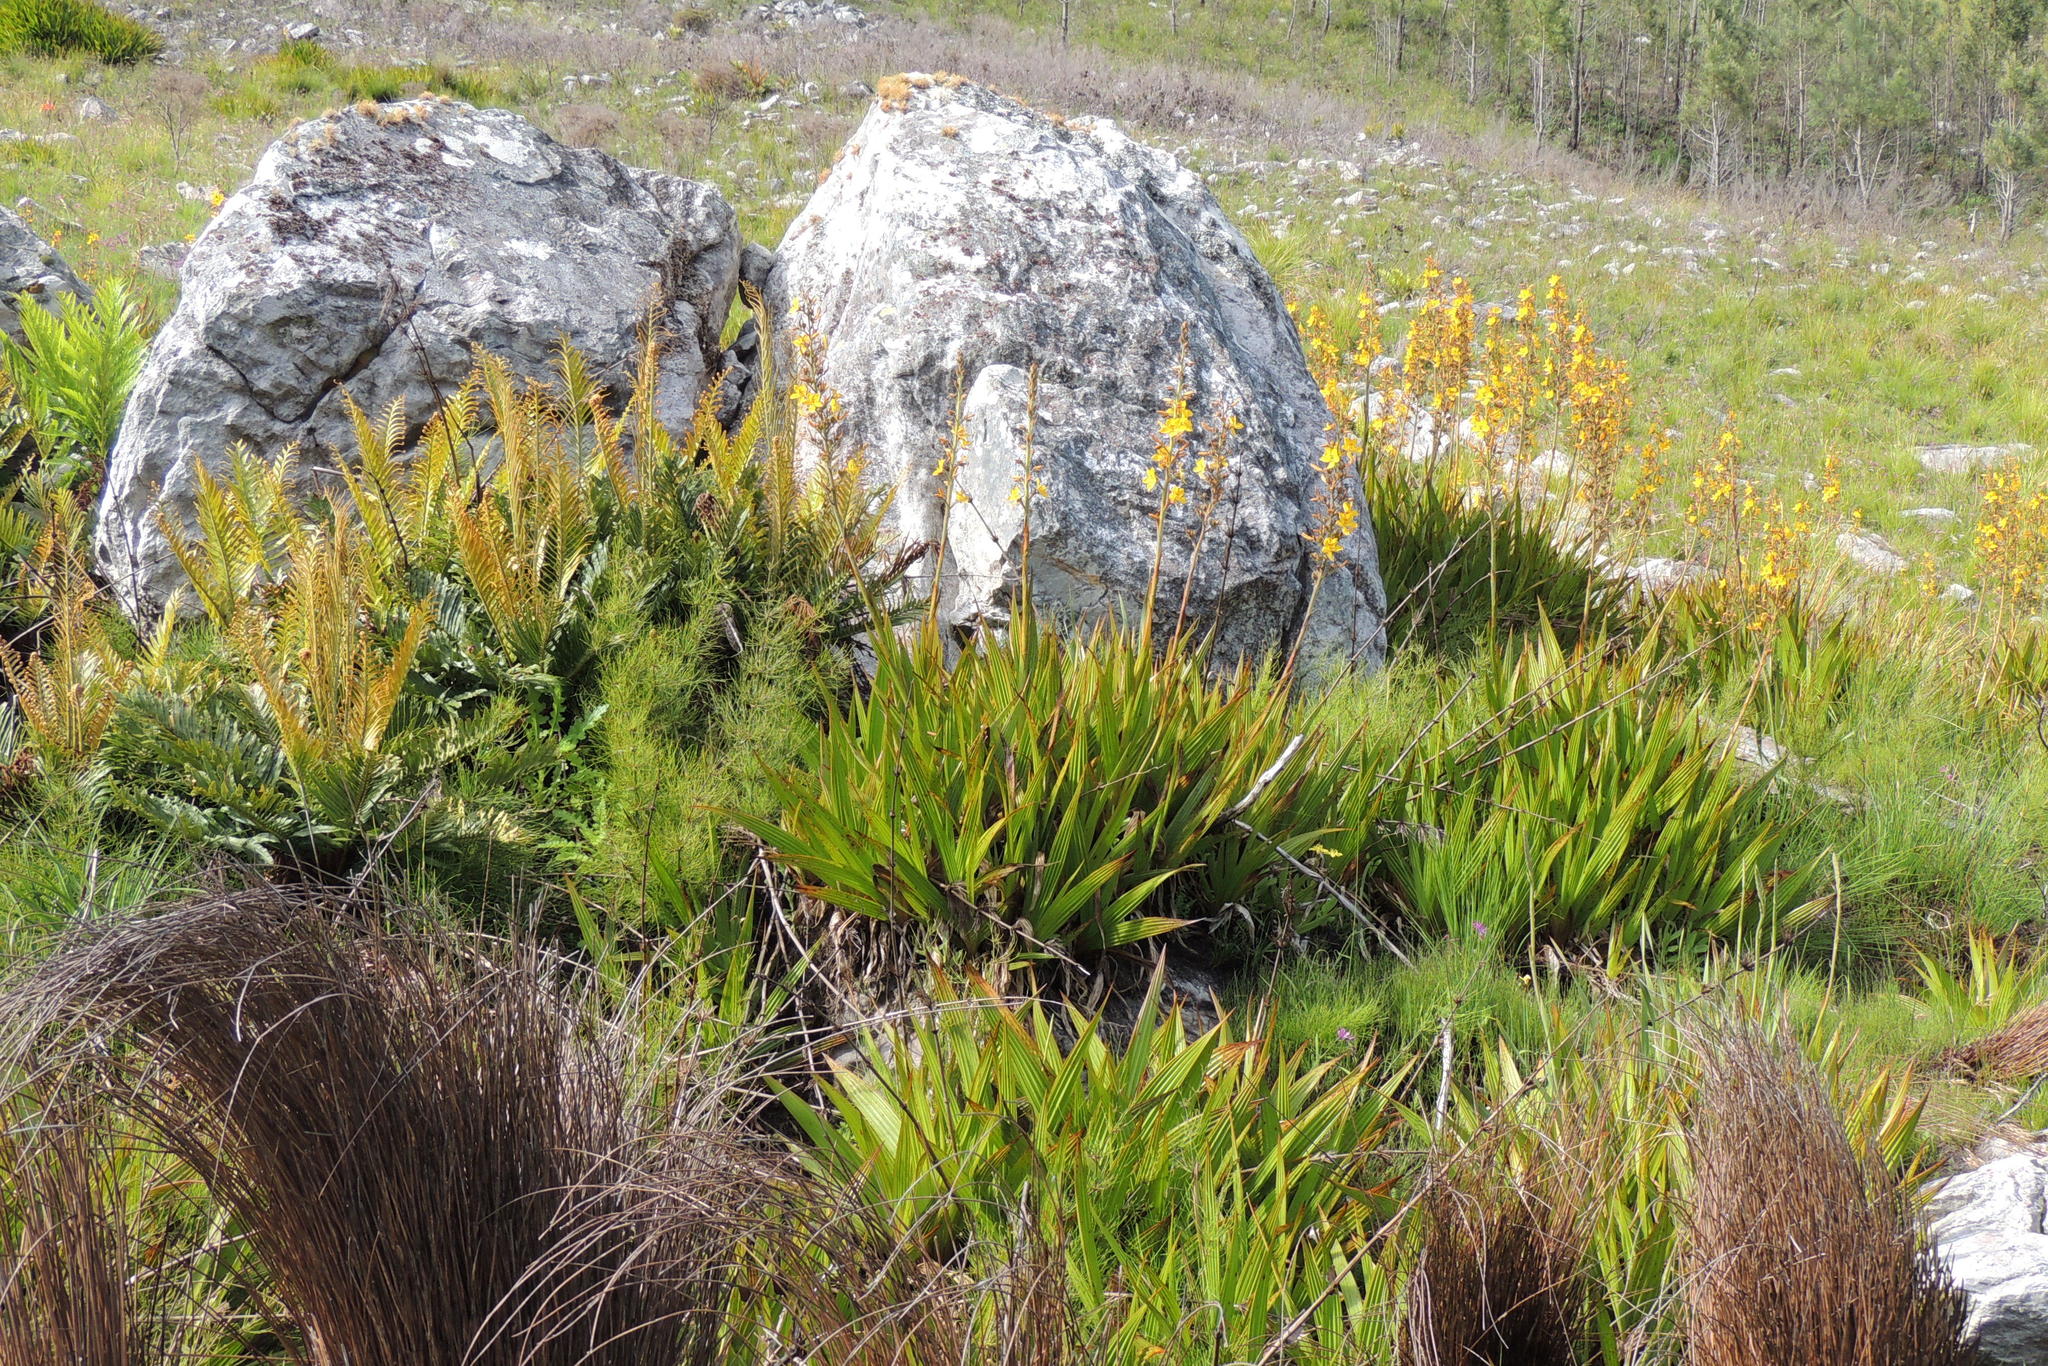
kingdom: Plantae
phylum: Tracheophyta
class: Liliopsida
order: Commelinales
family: Haemodoraceae
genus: Wachendorfia
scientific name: Wachendorfia thyrsiflora
